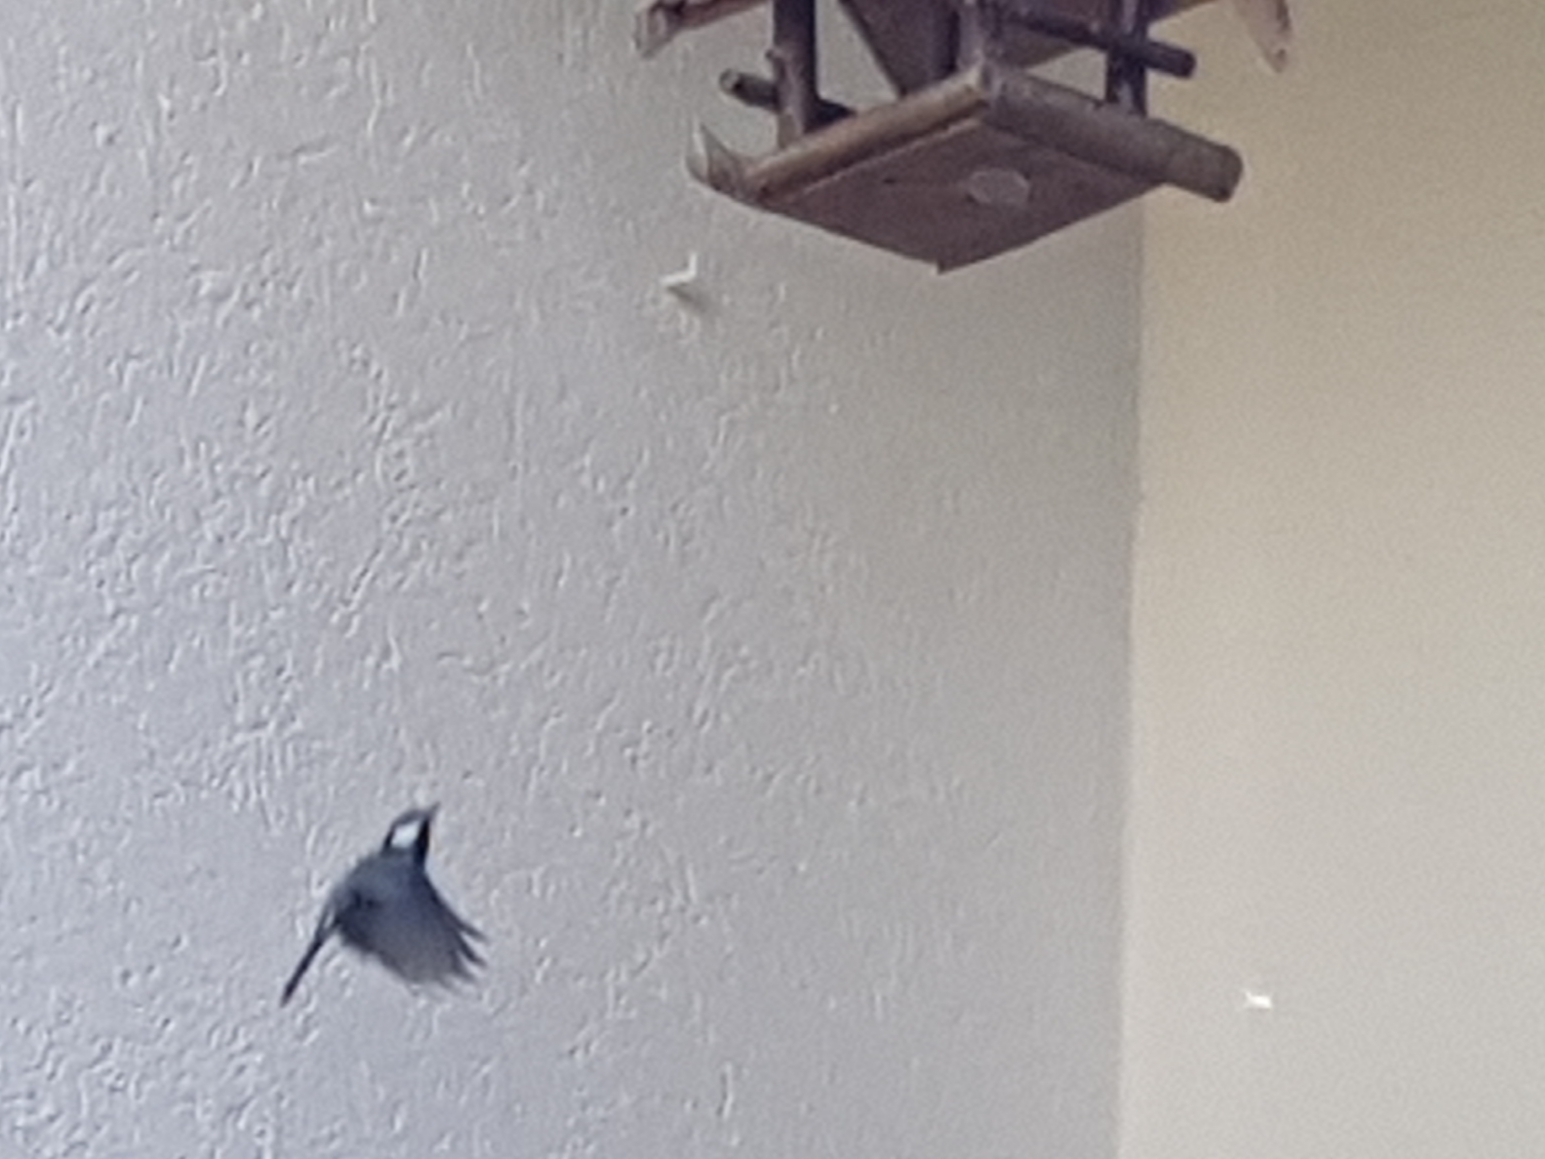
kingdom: Animalia
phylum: Chordata
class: Aves
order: Passeriformes
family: Paridae
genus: Parus
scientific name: Parus major
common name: Great tit
